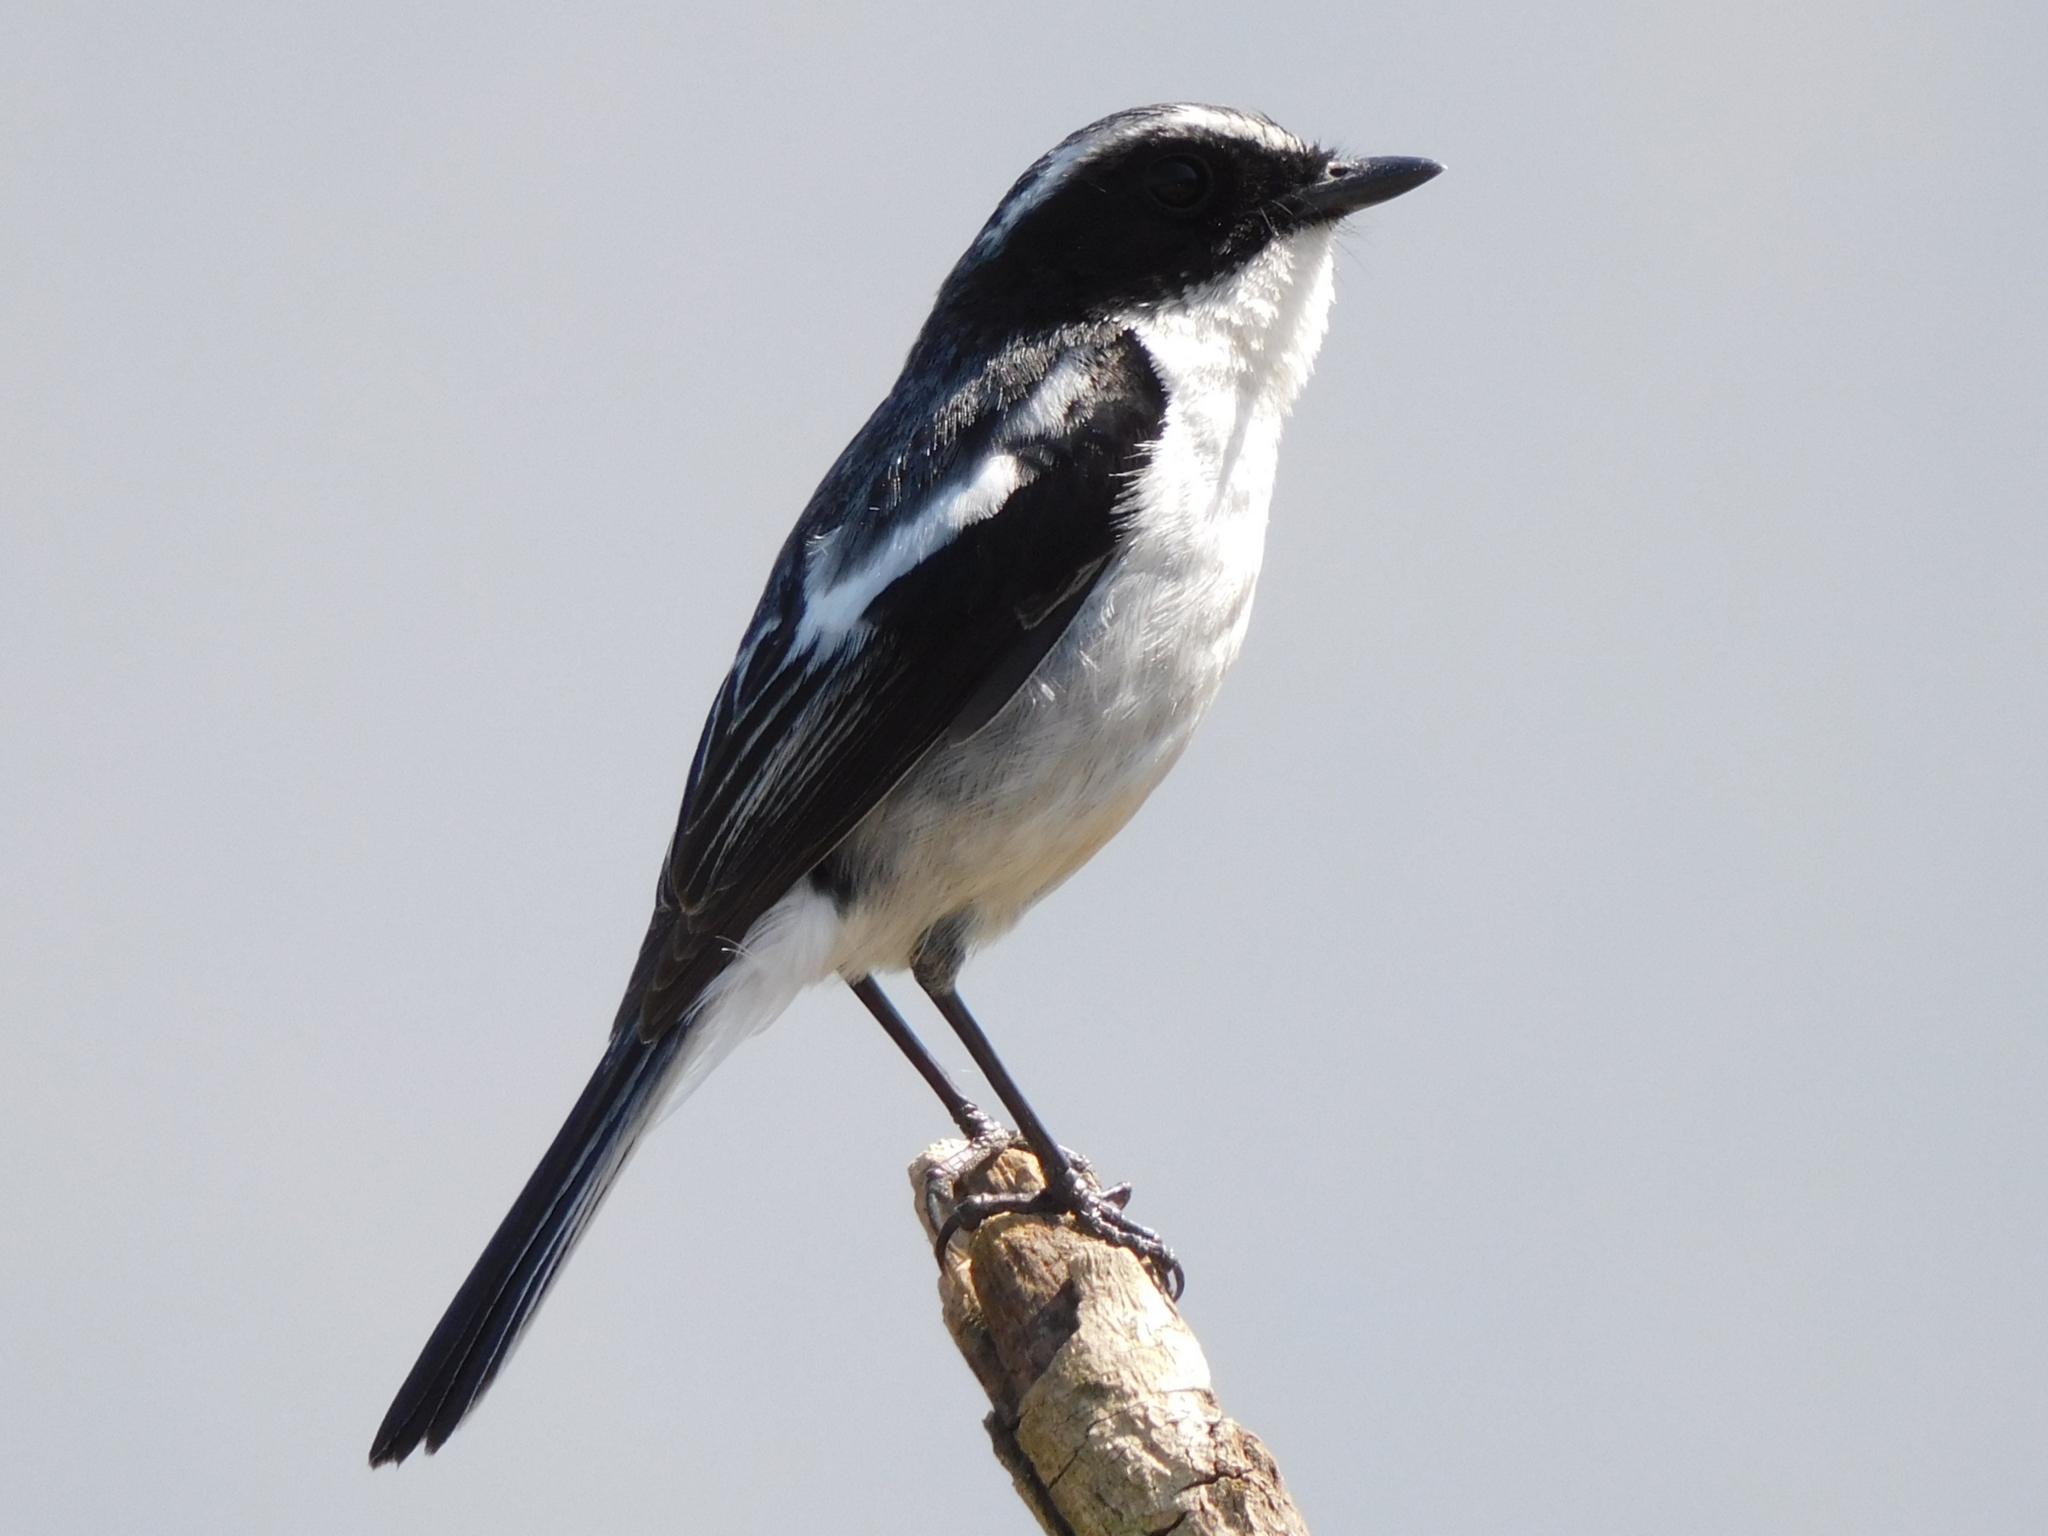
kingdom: Animalia
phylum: Chordata
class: Aves
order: Passeriformes
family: Muscicapidae
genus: Saxicola
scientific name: Saxicola ferreus
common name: Grey bush chat
